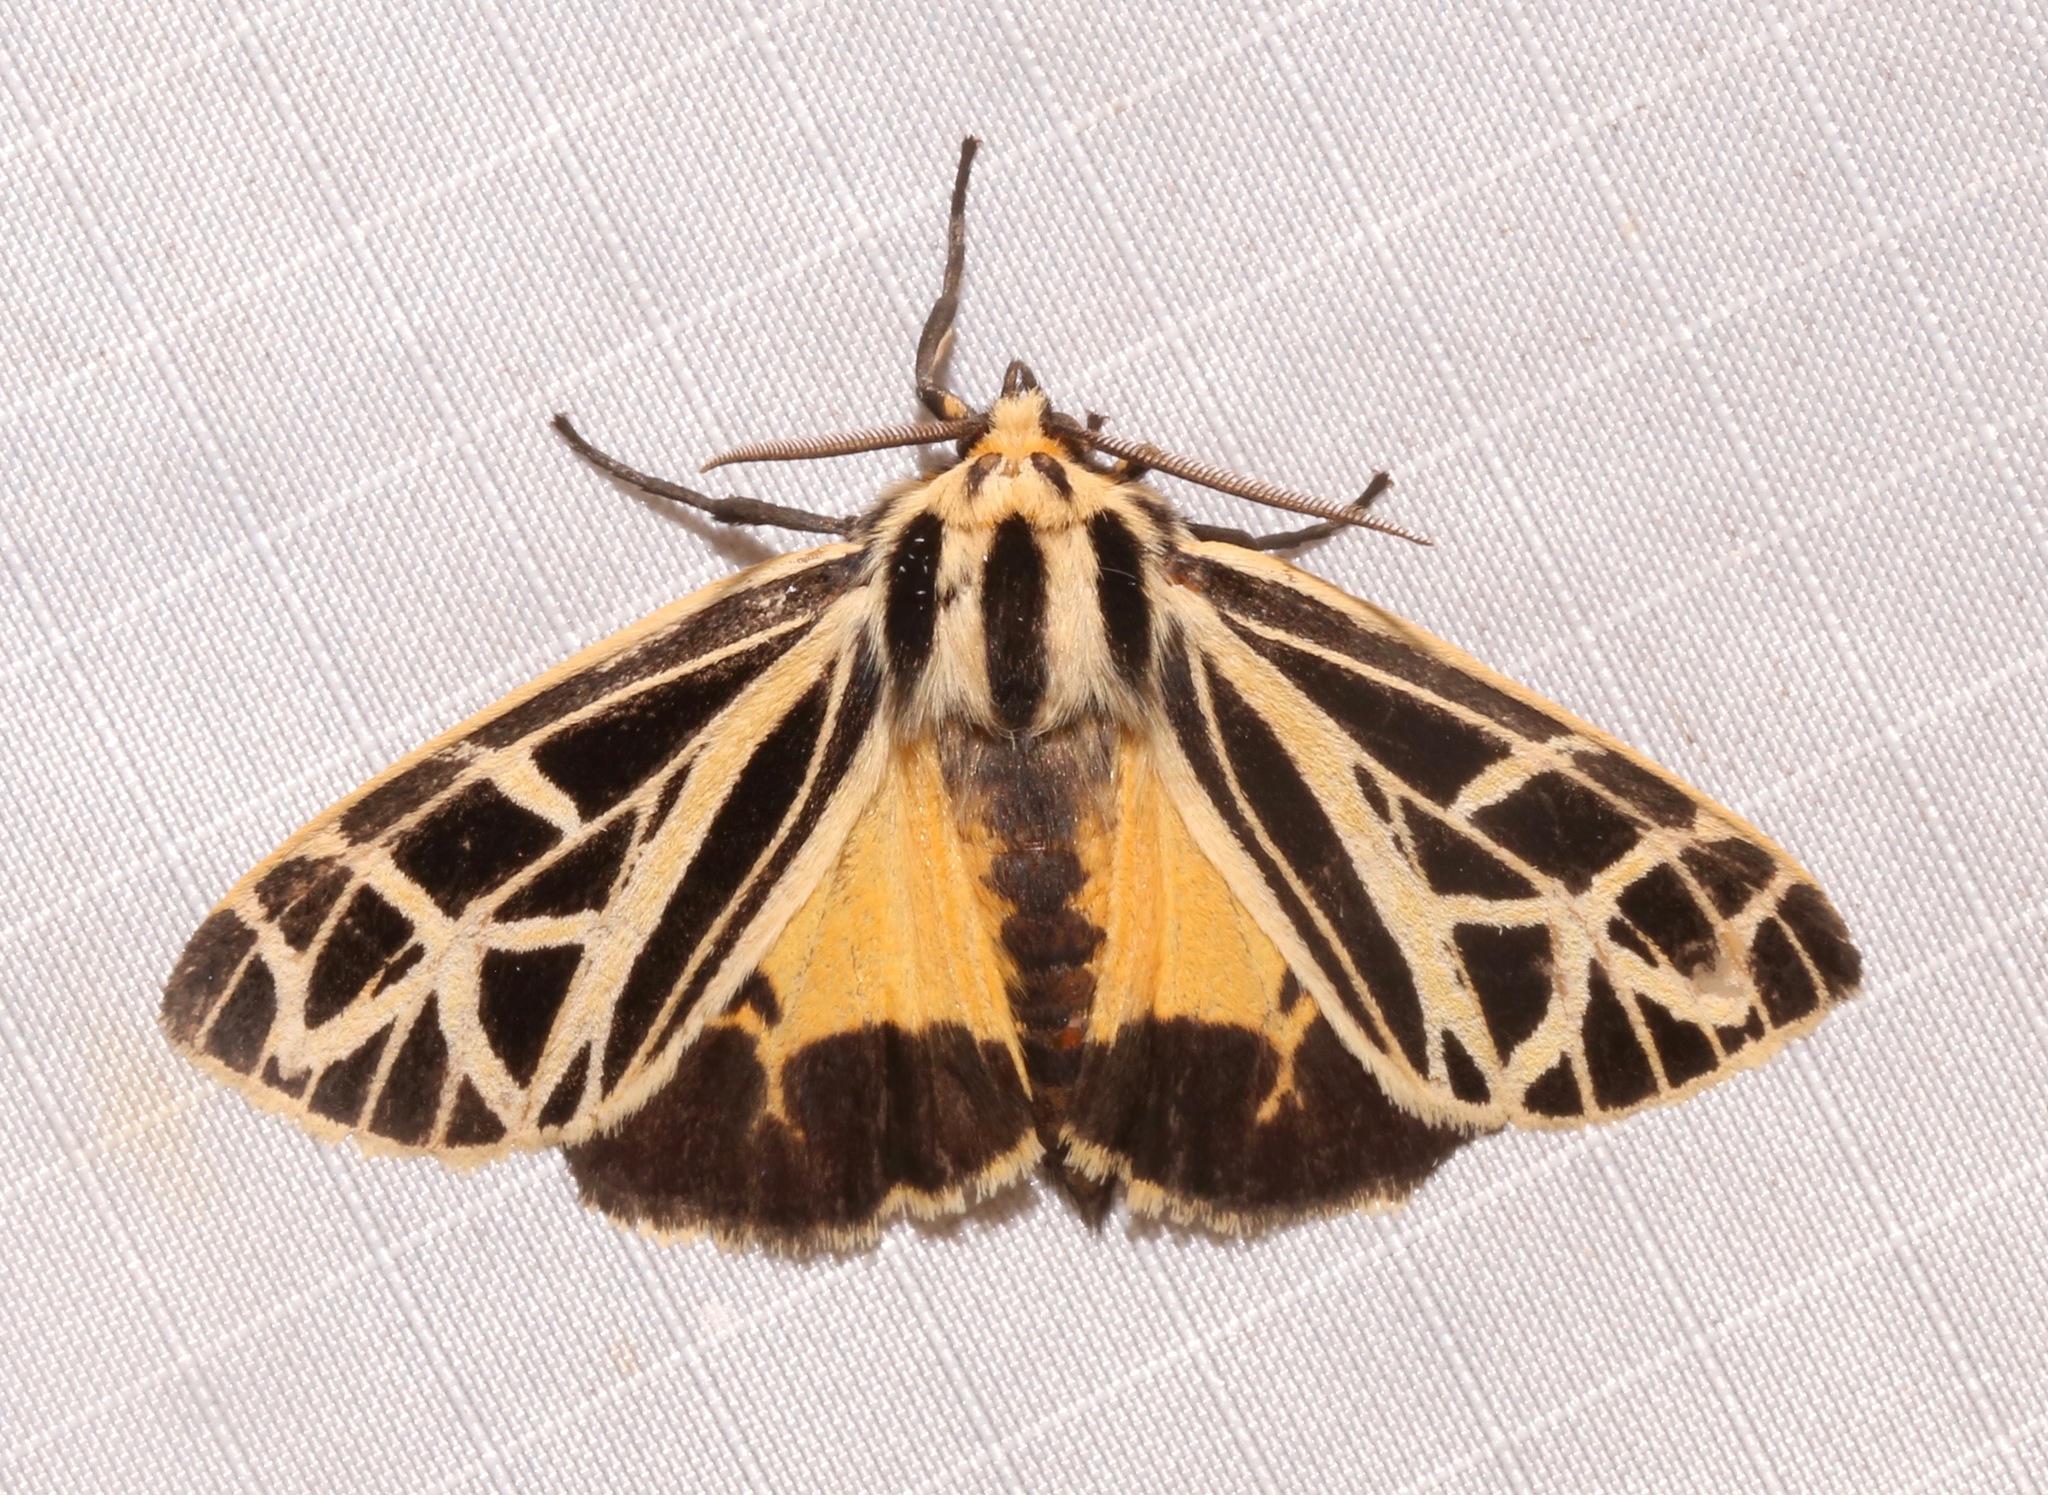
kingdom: Animalia
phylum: Arthropoda
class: Insecta
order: Lepidoptera
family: Erebidae
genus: Apantesis
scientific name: Apantesis
